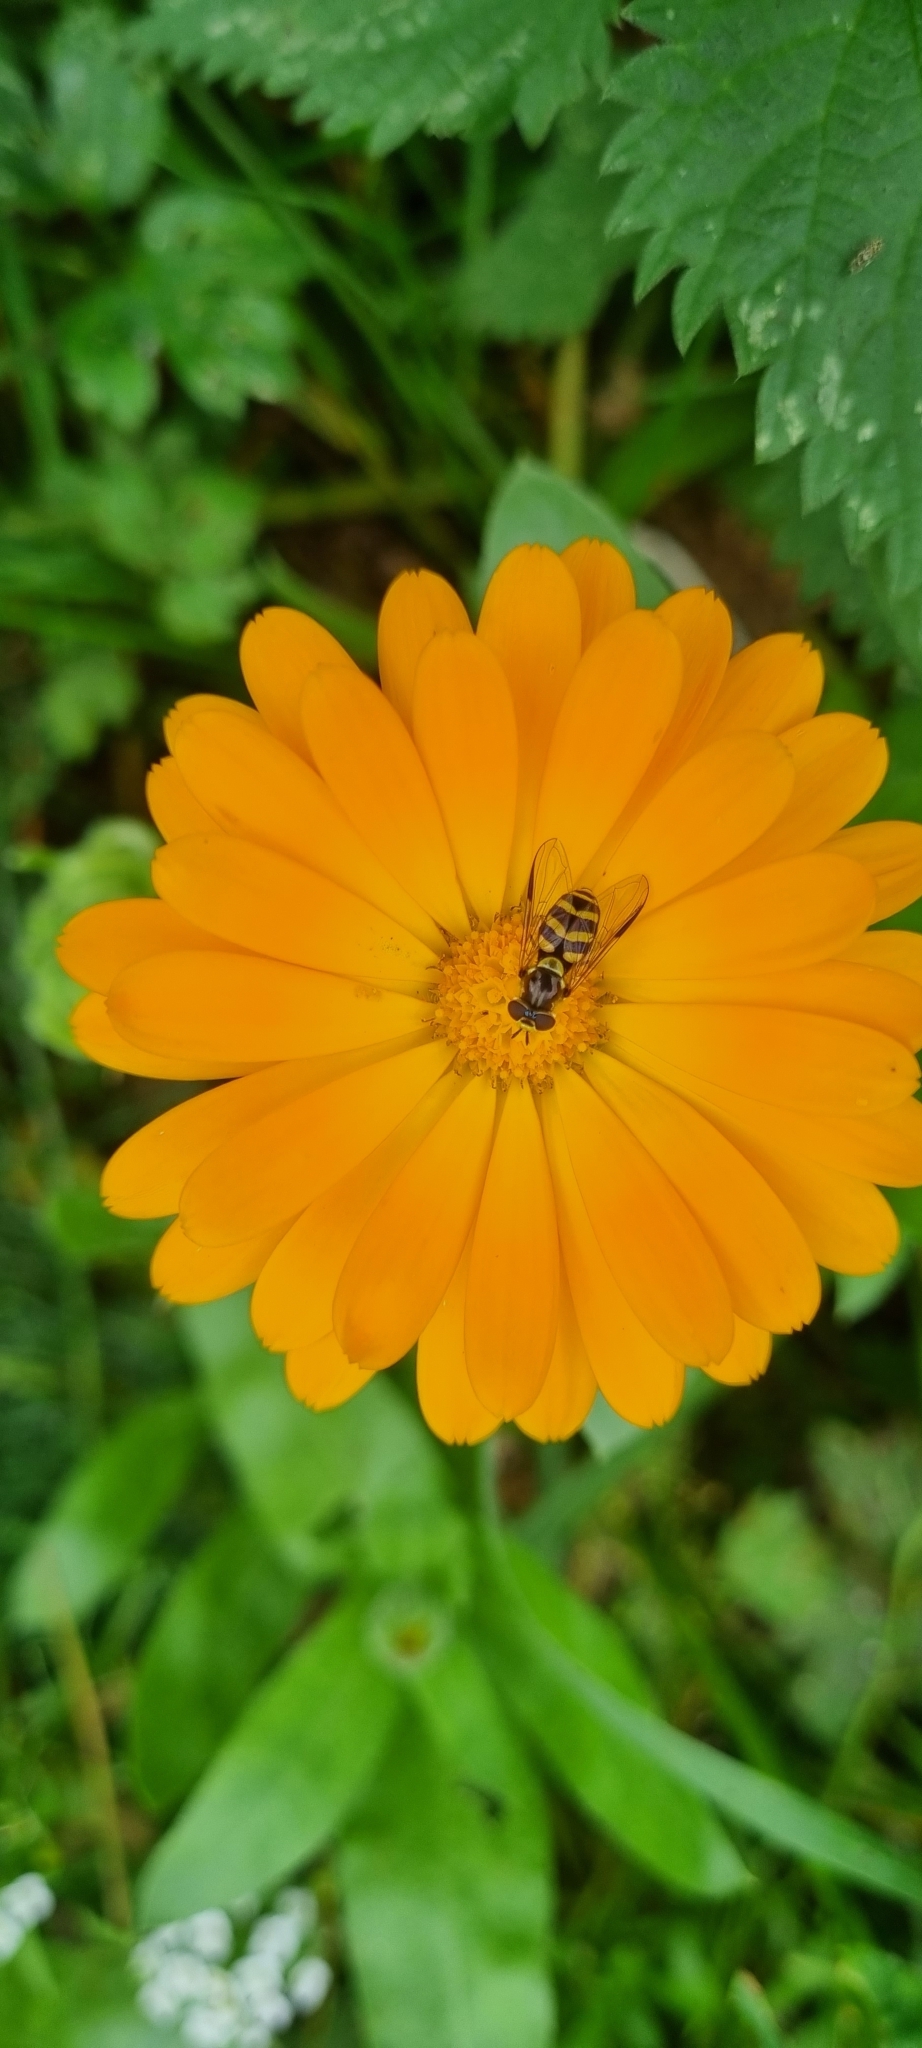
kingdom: Animalia
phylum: Arthropoda
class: Insecta
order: Diptera
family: Syrphidae
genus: Dasysyrphus
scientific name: Dasysyrphus albostriatus
